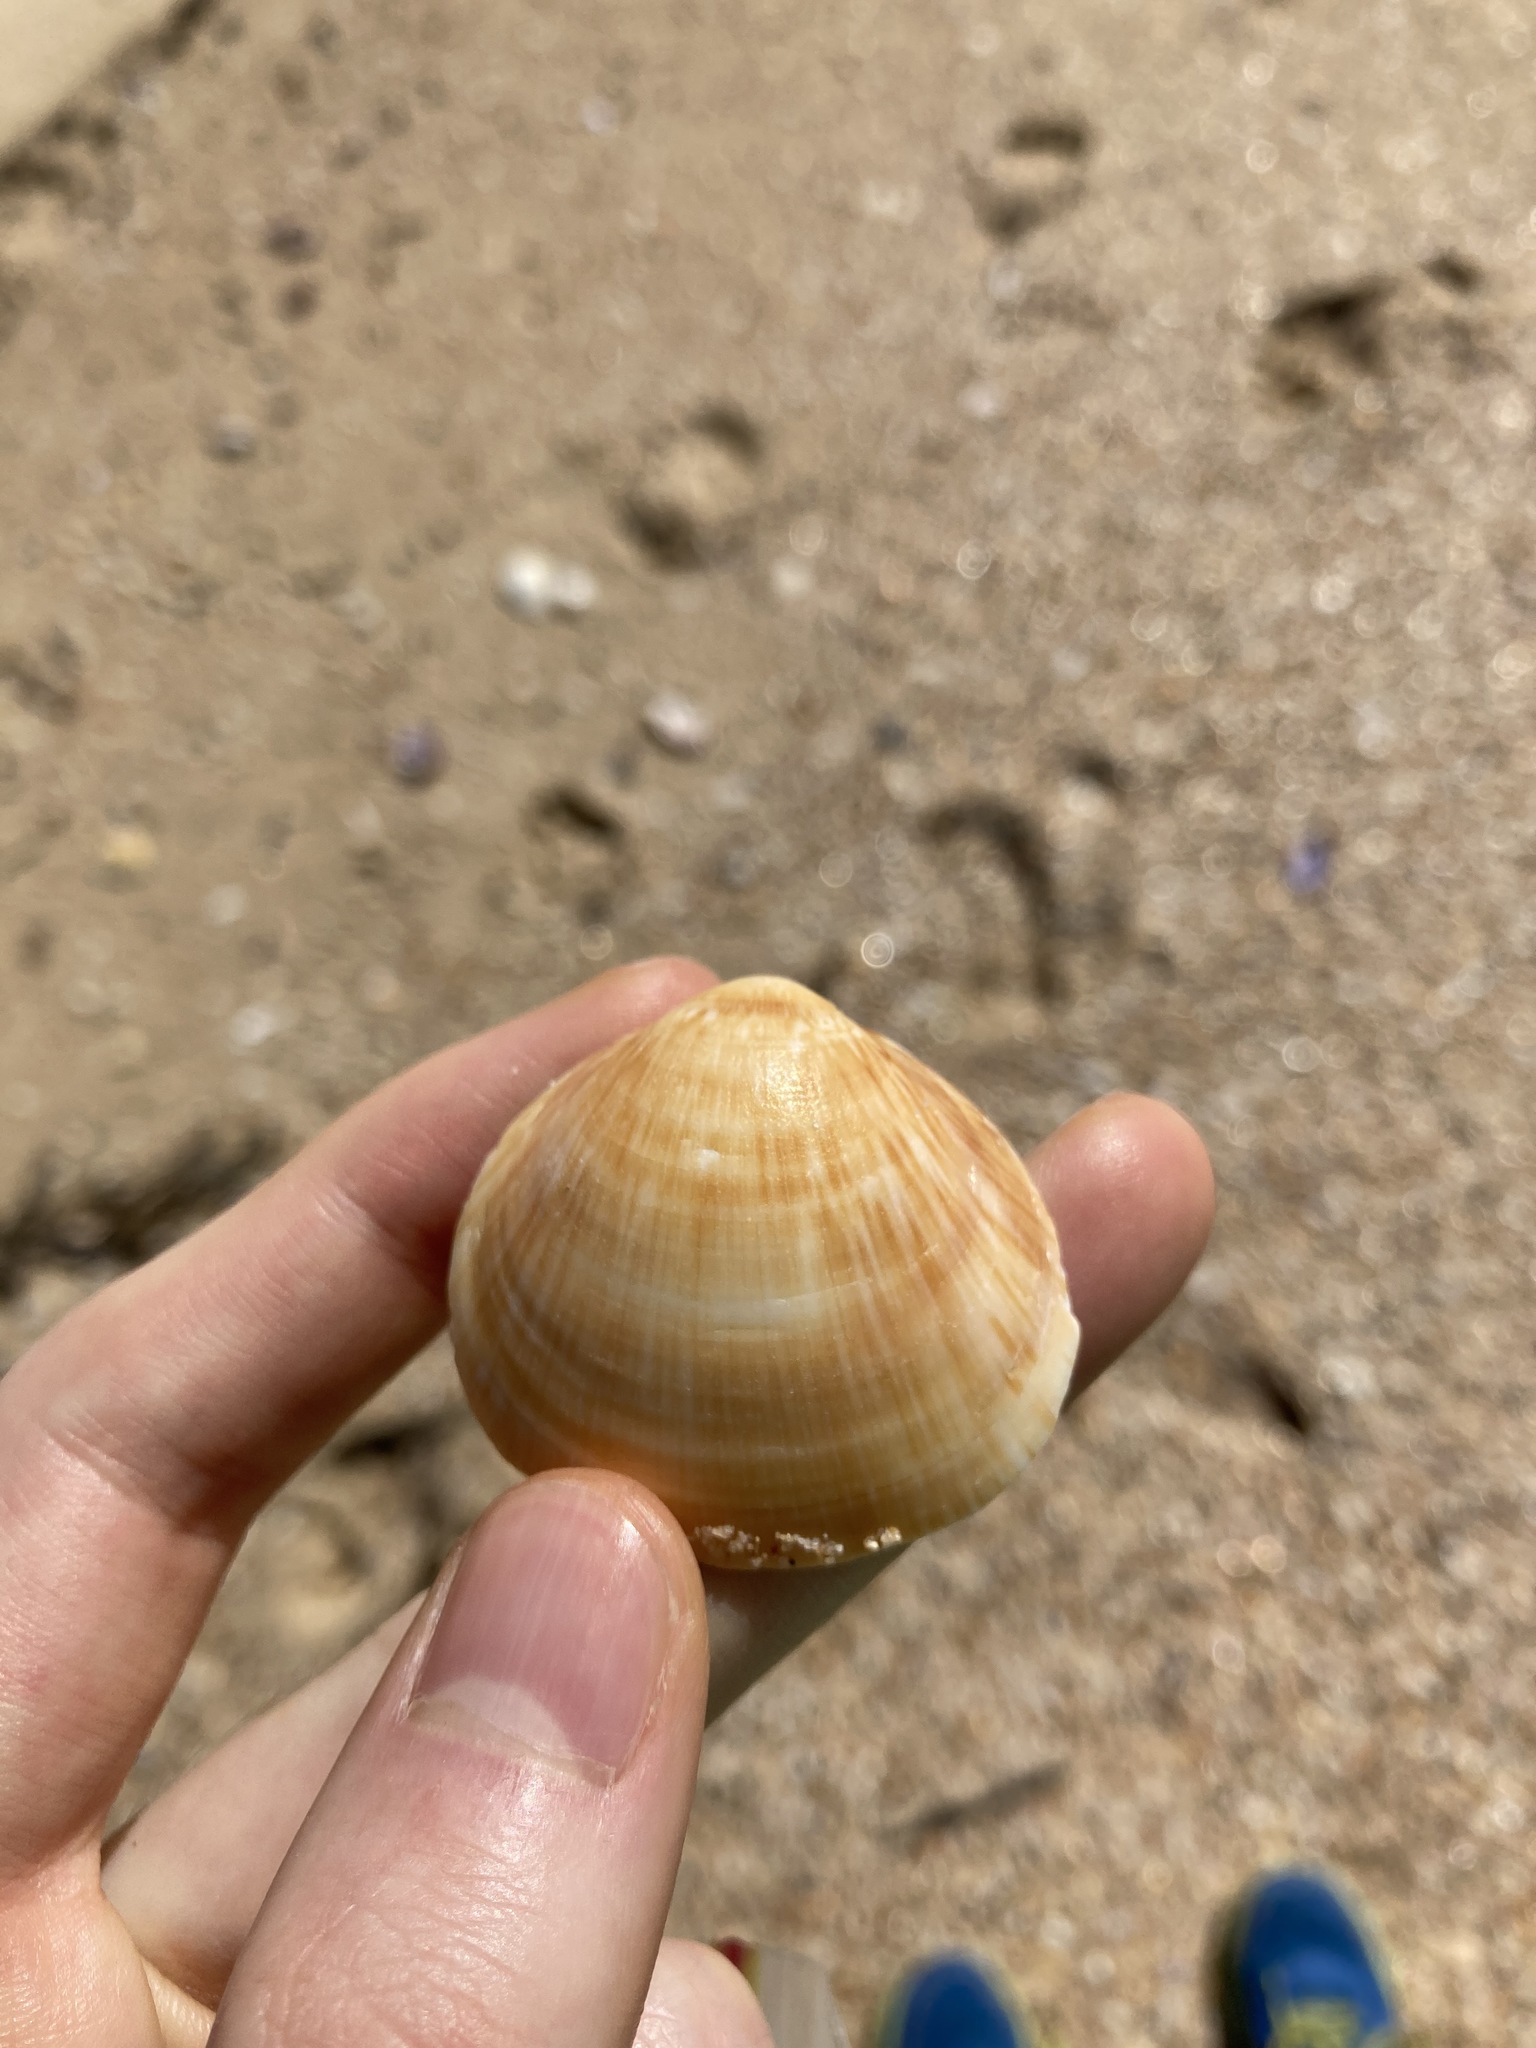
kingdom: Animalia
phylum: Mollusca
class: Bivalvia
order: Arcida
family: Glycymerididae
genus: Glycymeris
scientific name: Glycymeris grayana
